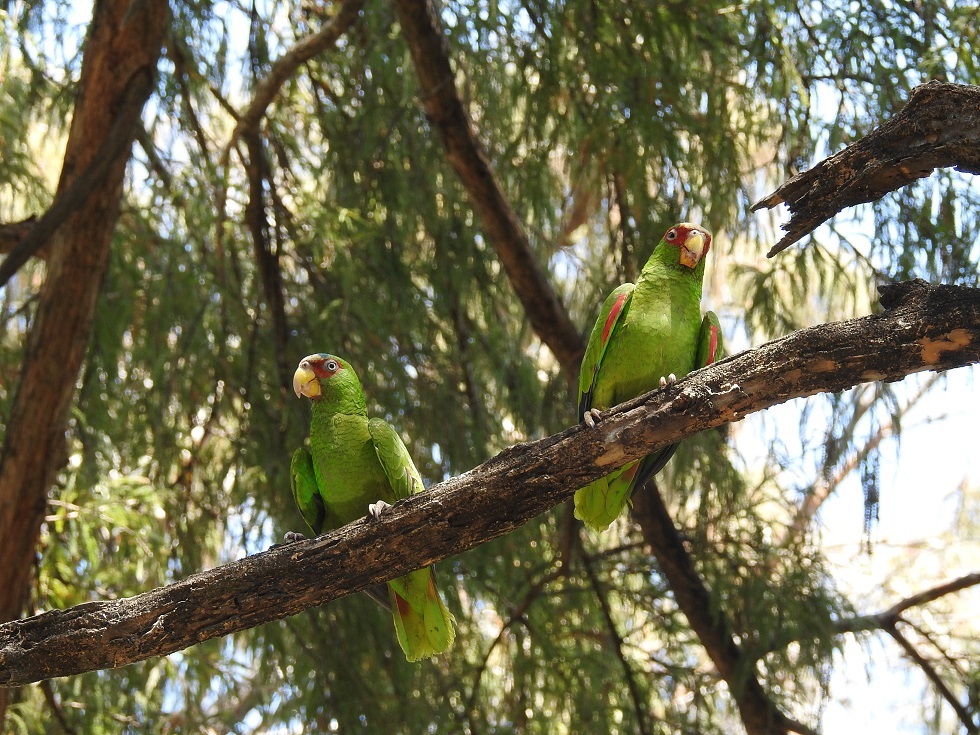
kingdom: Animalia
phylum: Chordata
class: Aves
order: Psittaciformes
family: Psittacidae
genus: Amazona
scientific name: Amazona albifrons
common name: White-fronted amazon
